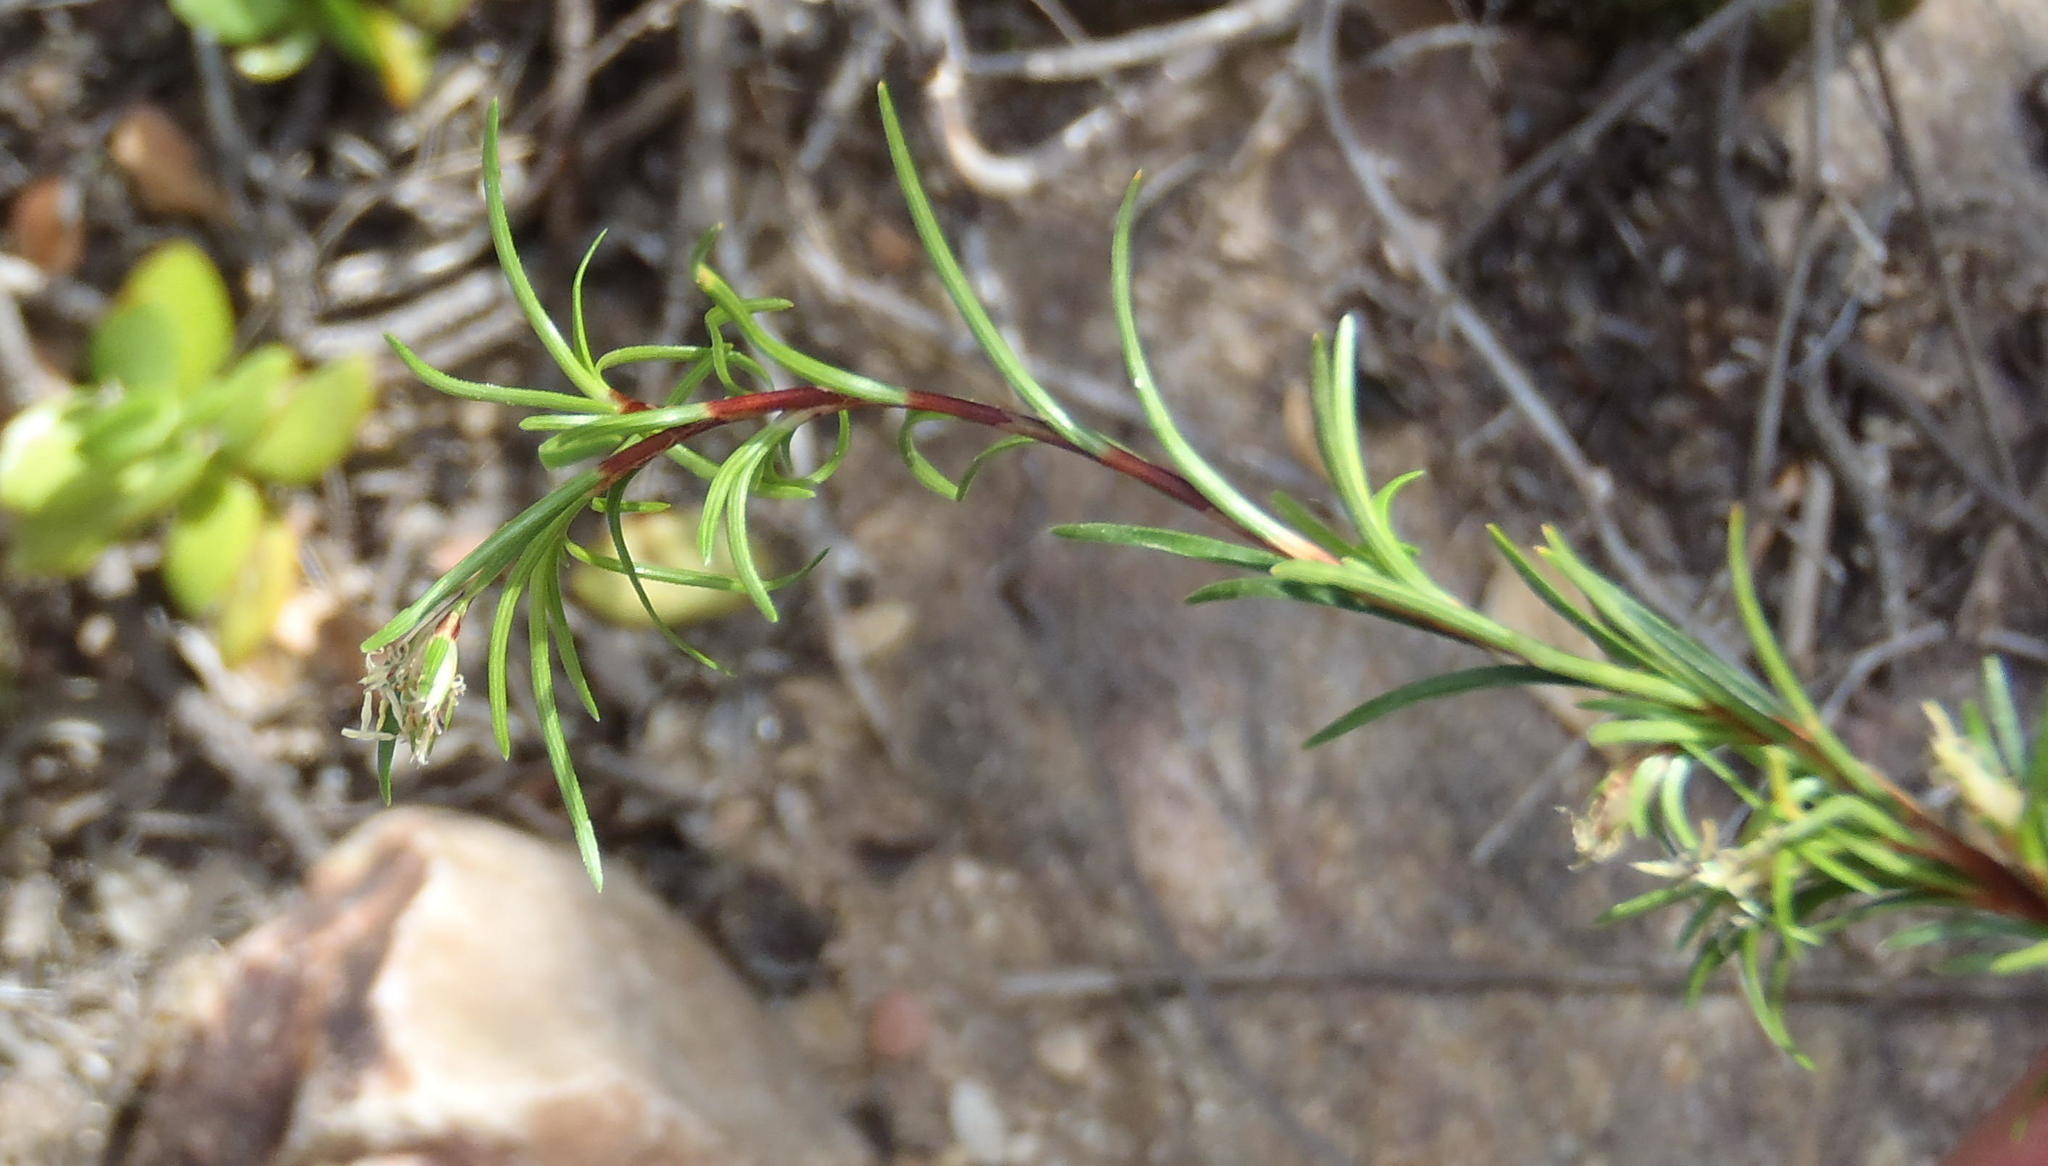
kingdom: Plantae
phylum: Tracheophyta
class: Liliopsida
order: Poales
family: Cyperaceae
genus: Ficinia
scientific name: Ficinia ramosissima
